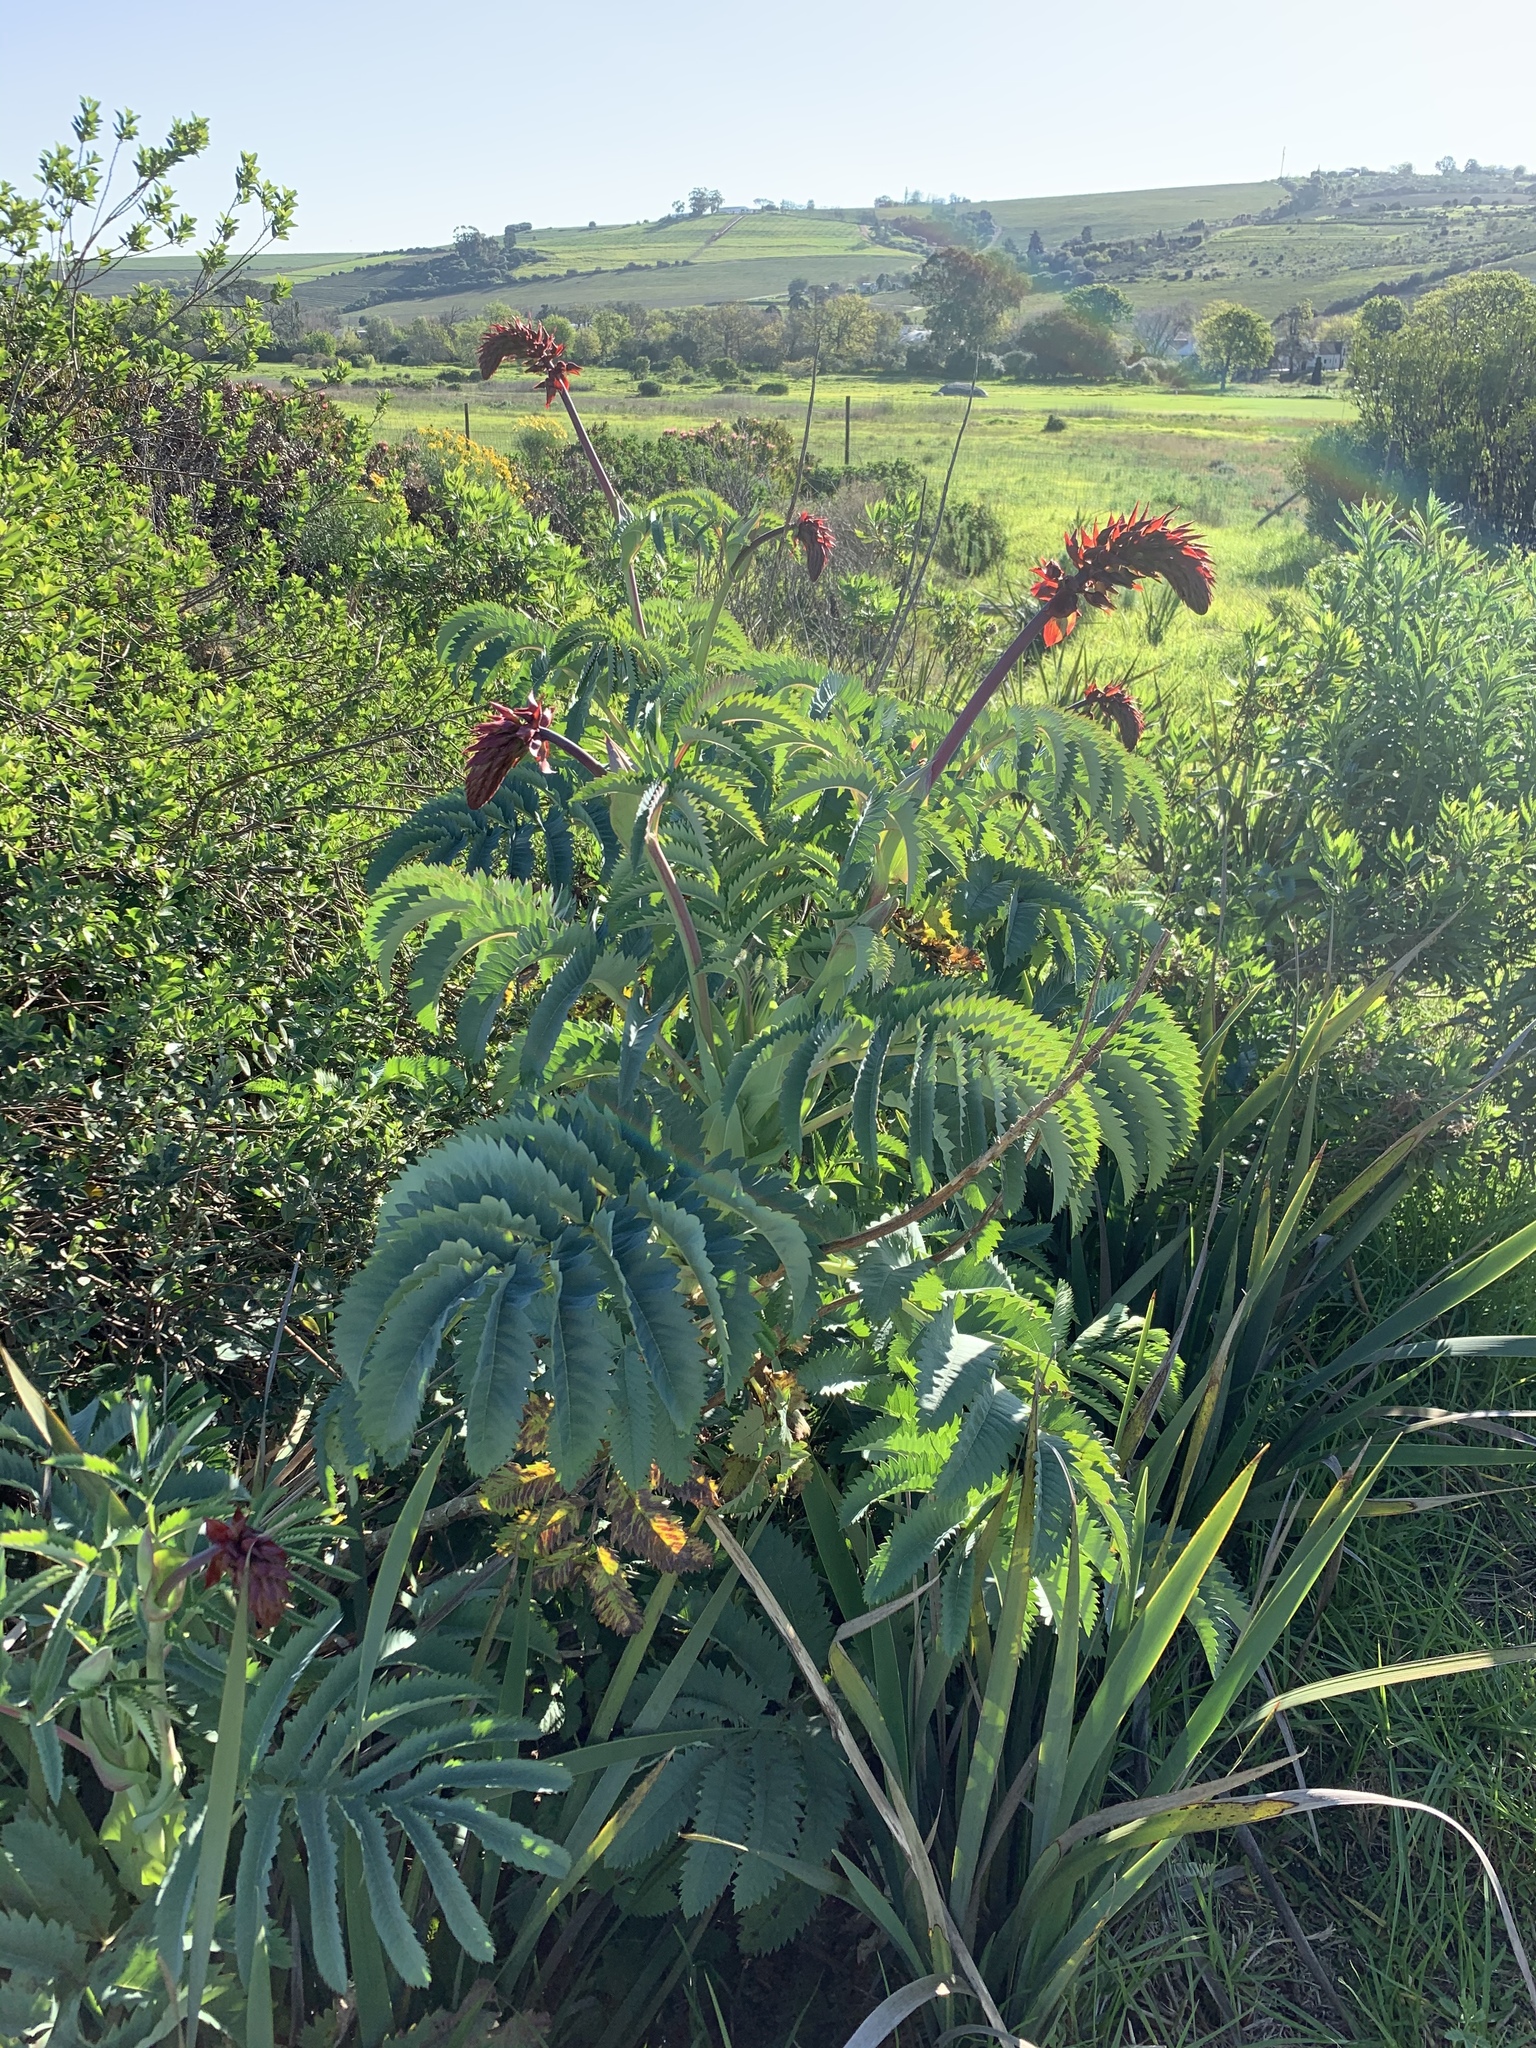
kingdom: Plantae
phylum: Tracheophyta
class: Magnoliopsida
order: Geraniales
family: Melianthaceae
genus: Melianthus
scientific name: Melianthus major
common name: Honey-flower
